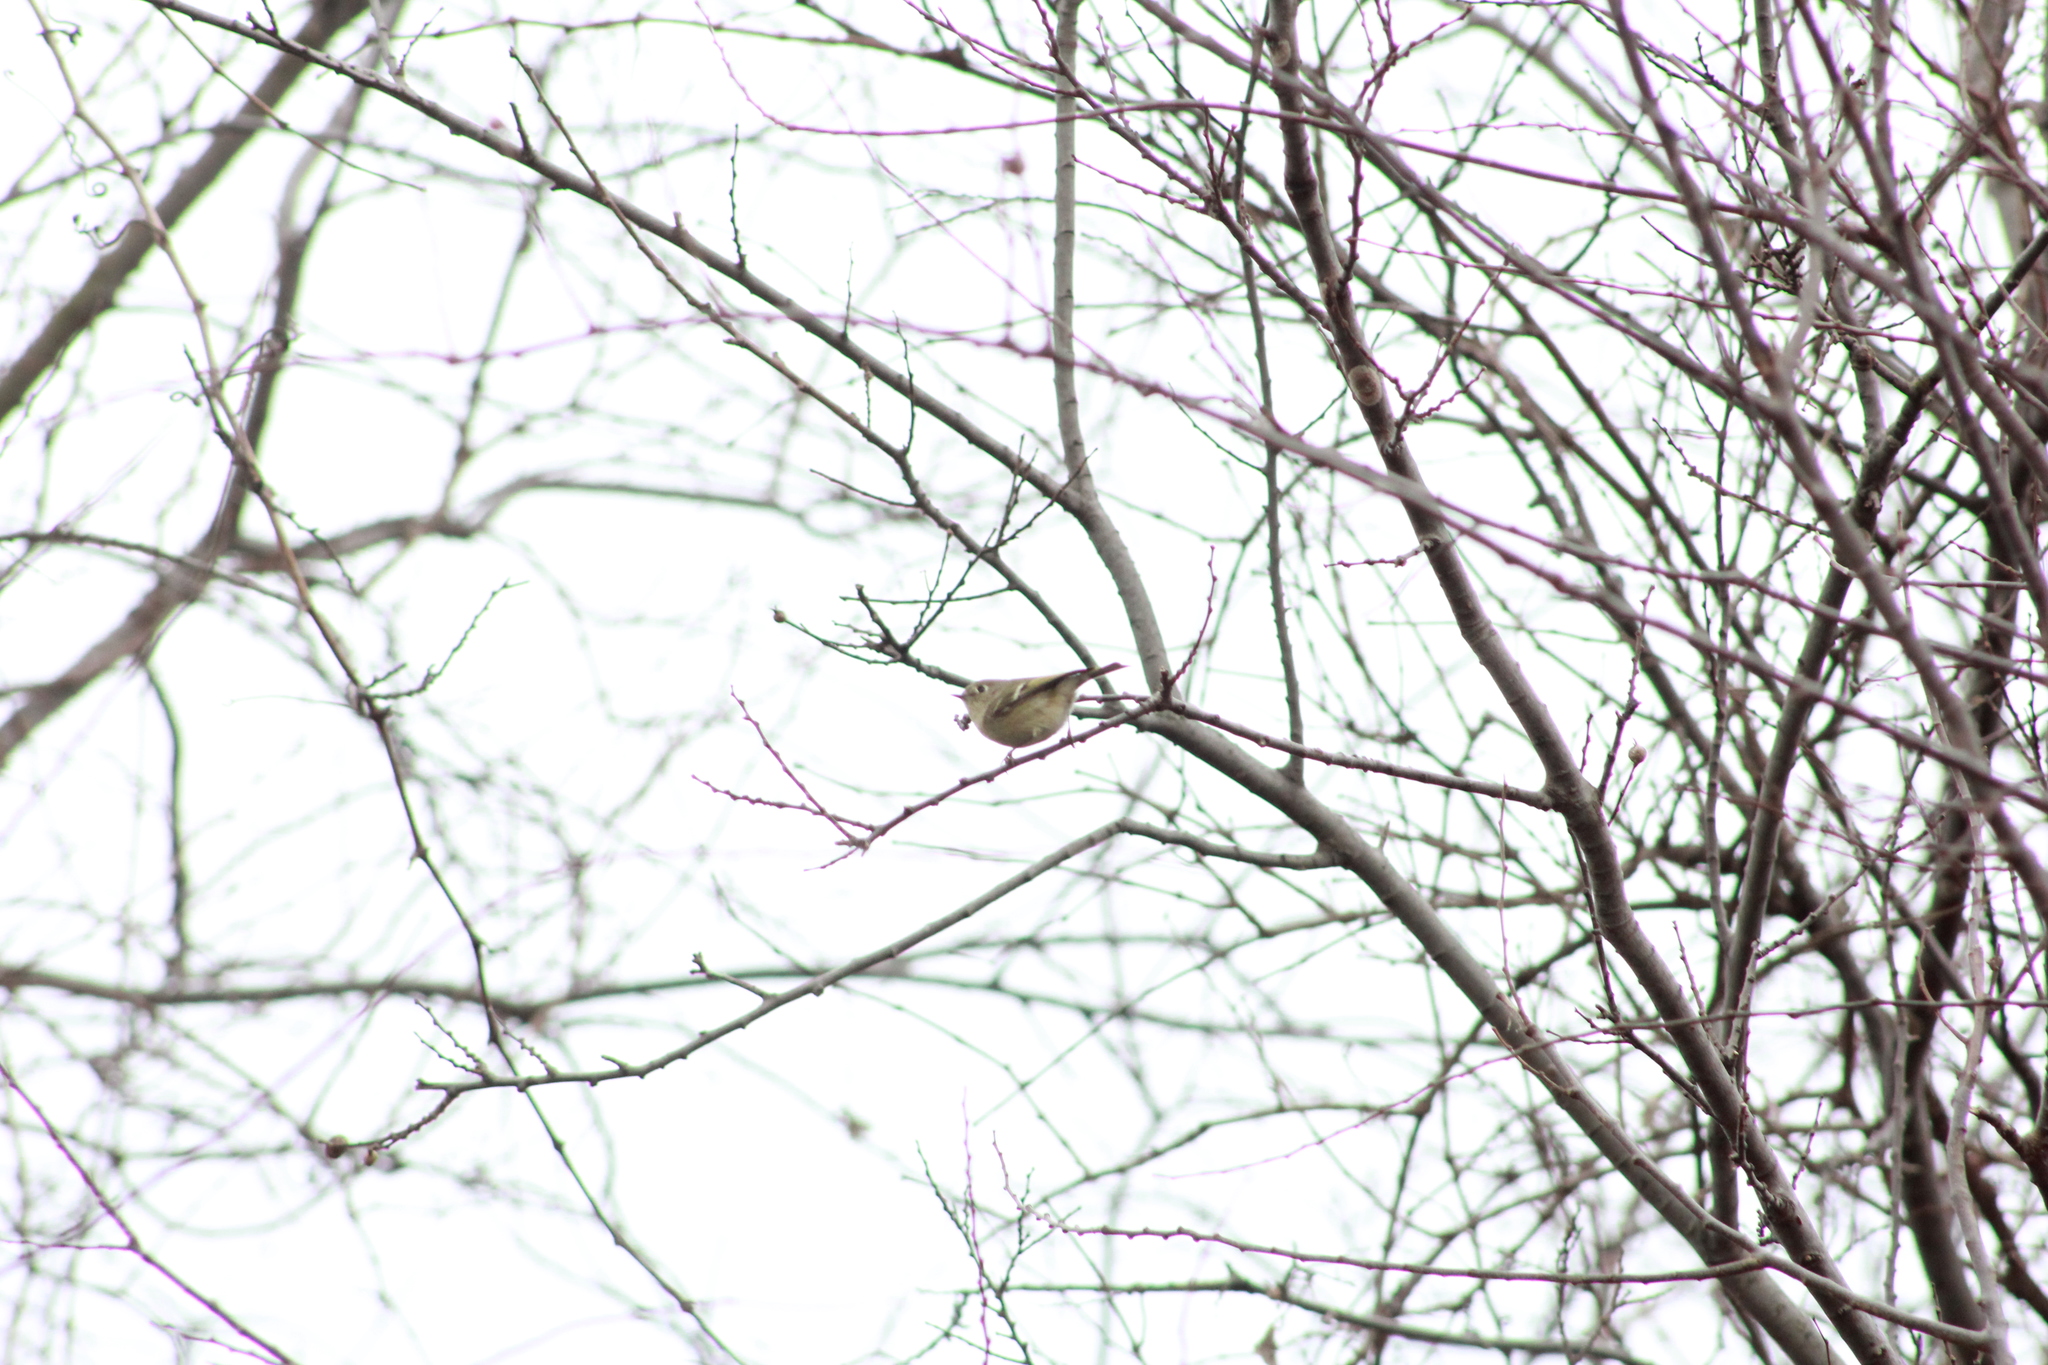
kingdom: Animalia
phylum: Chordata
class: Aves
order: Passeriformes
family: Regulidae
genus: Regulus
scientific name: Regulus calendula
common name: Ruby-crowned kinglet
